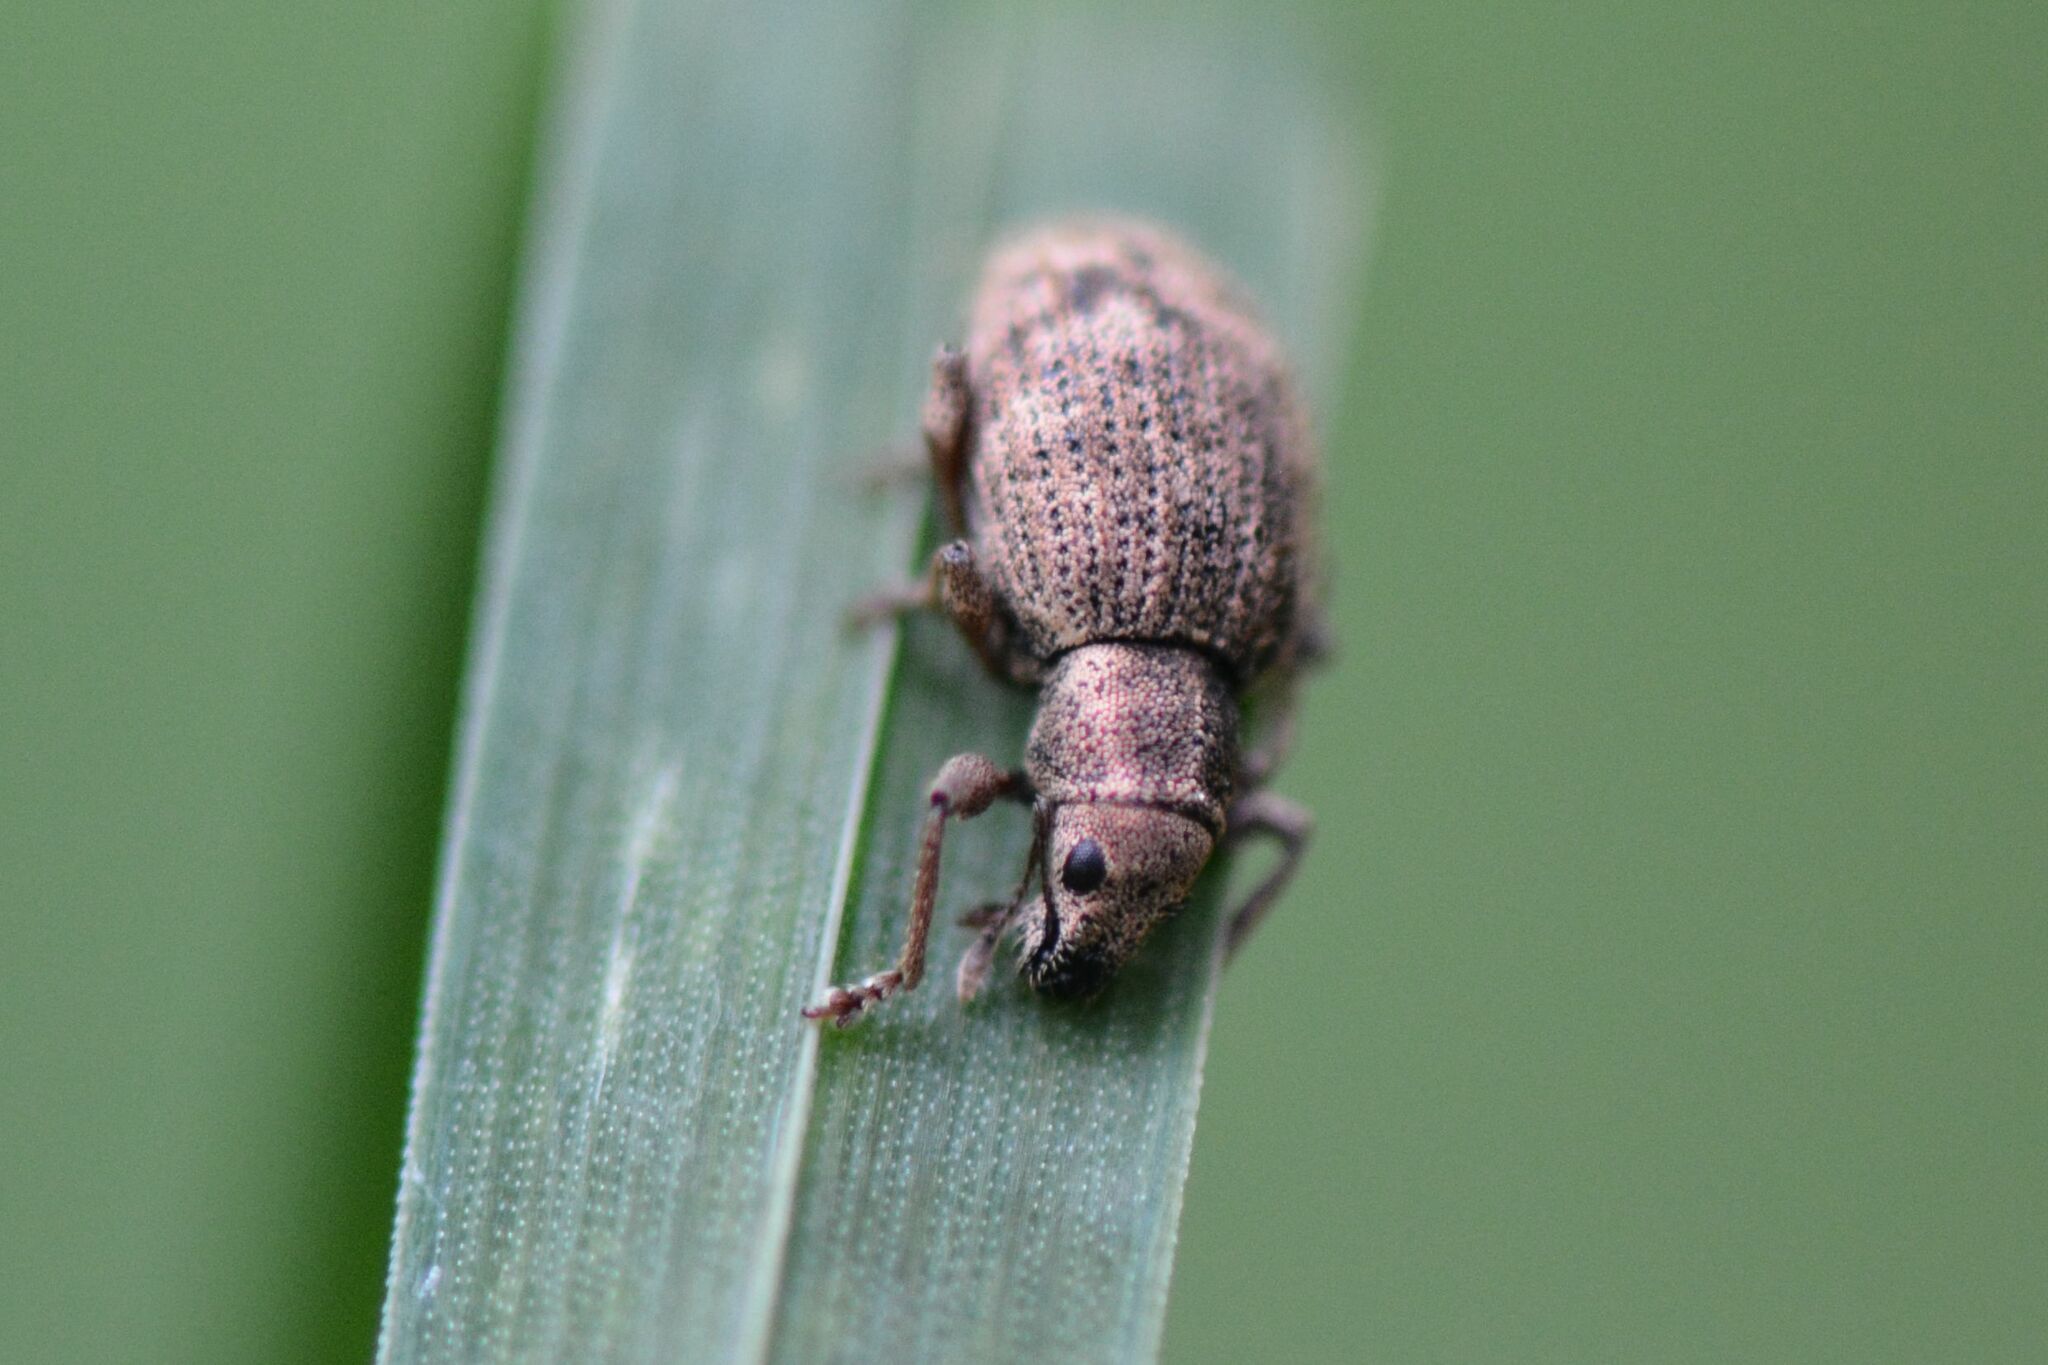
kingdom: Animalia
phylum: Arthropoda
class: Insecta
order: Coleoptera
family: Curculionidae
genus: Sciaphilus
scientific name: Sciaphilus asperatus
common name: Weevil
